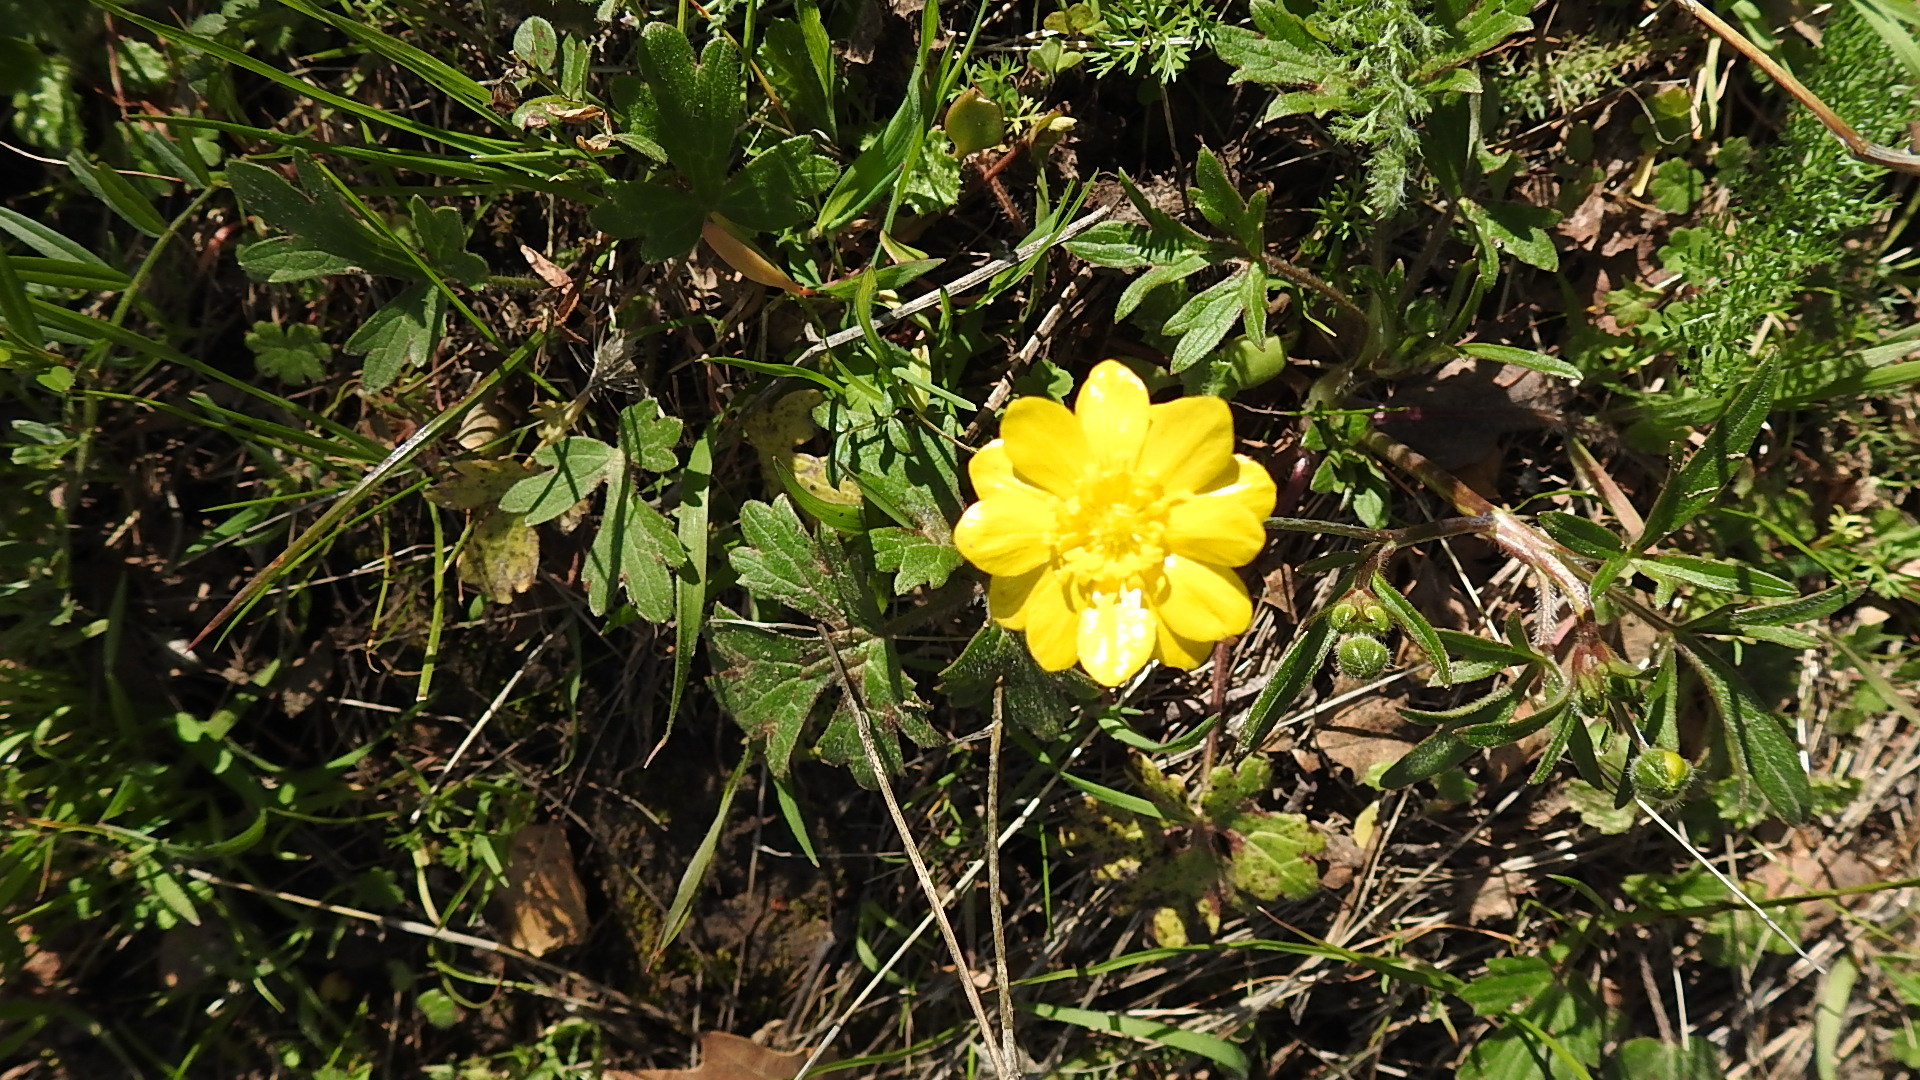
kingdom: Plantae
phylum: Tracheophyta
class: Magnoliopsida
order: Ranunculales
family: Ranunculaceae
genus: Ranunculus
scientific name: Ranunculus californicus
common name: California buttercup
